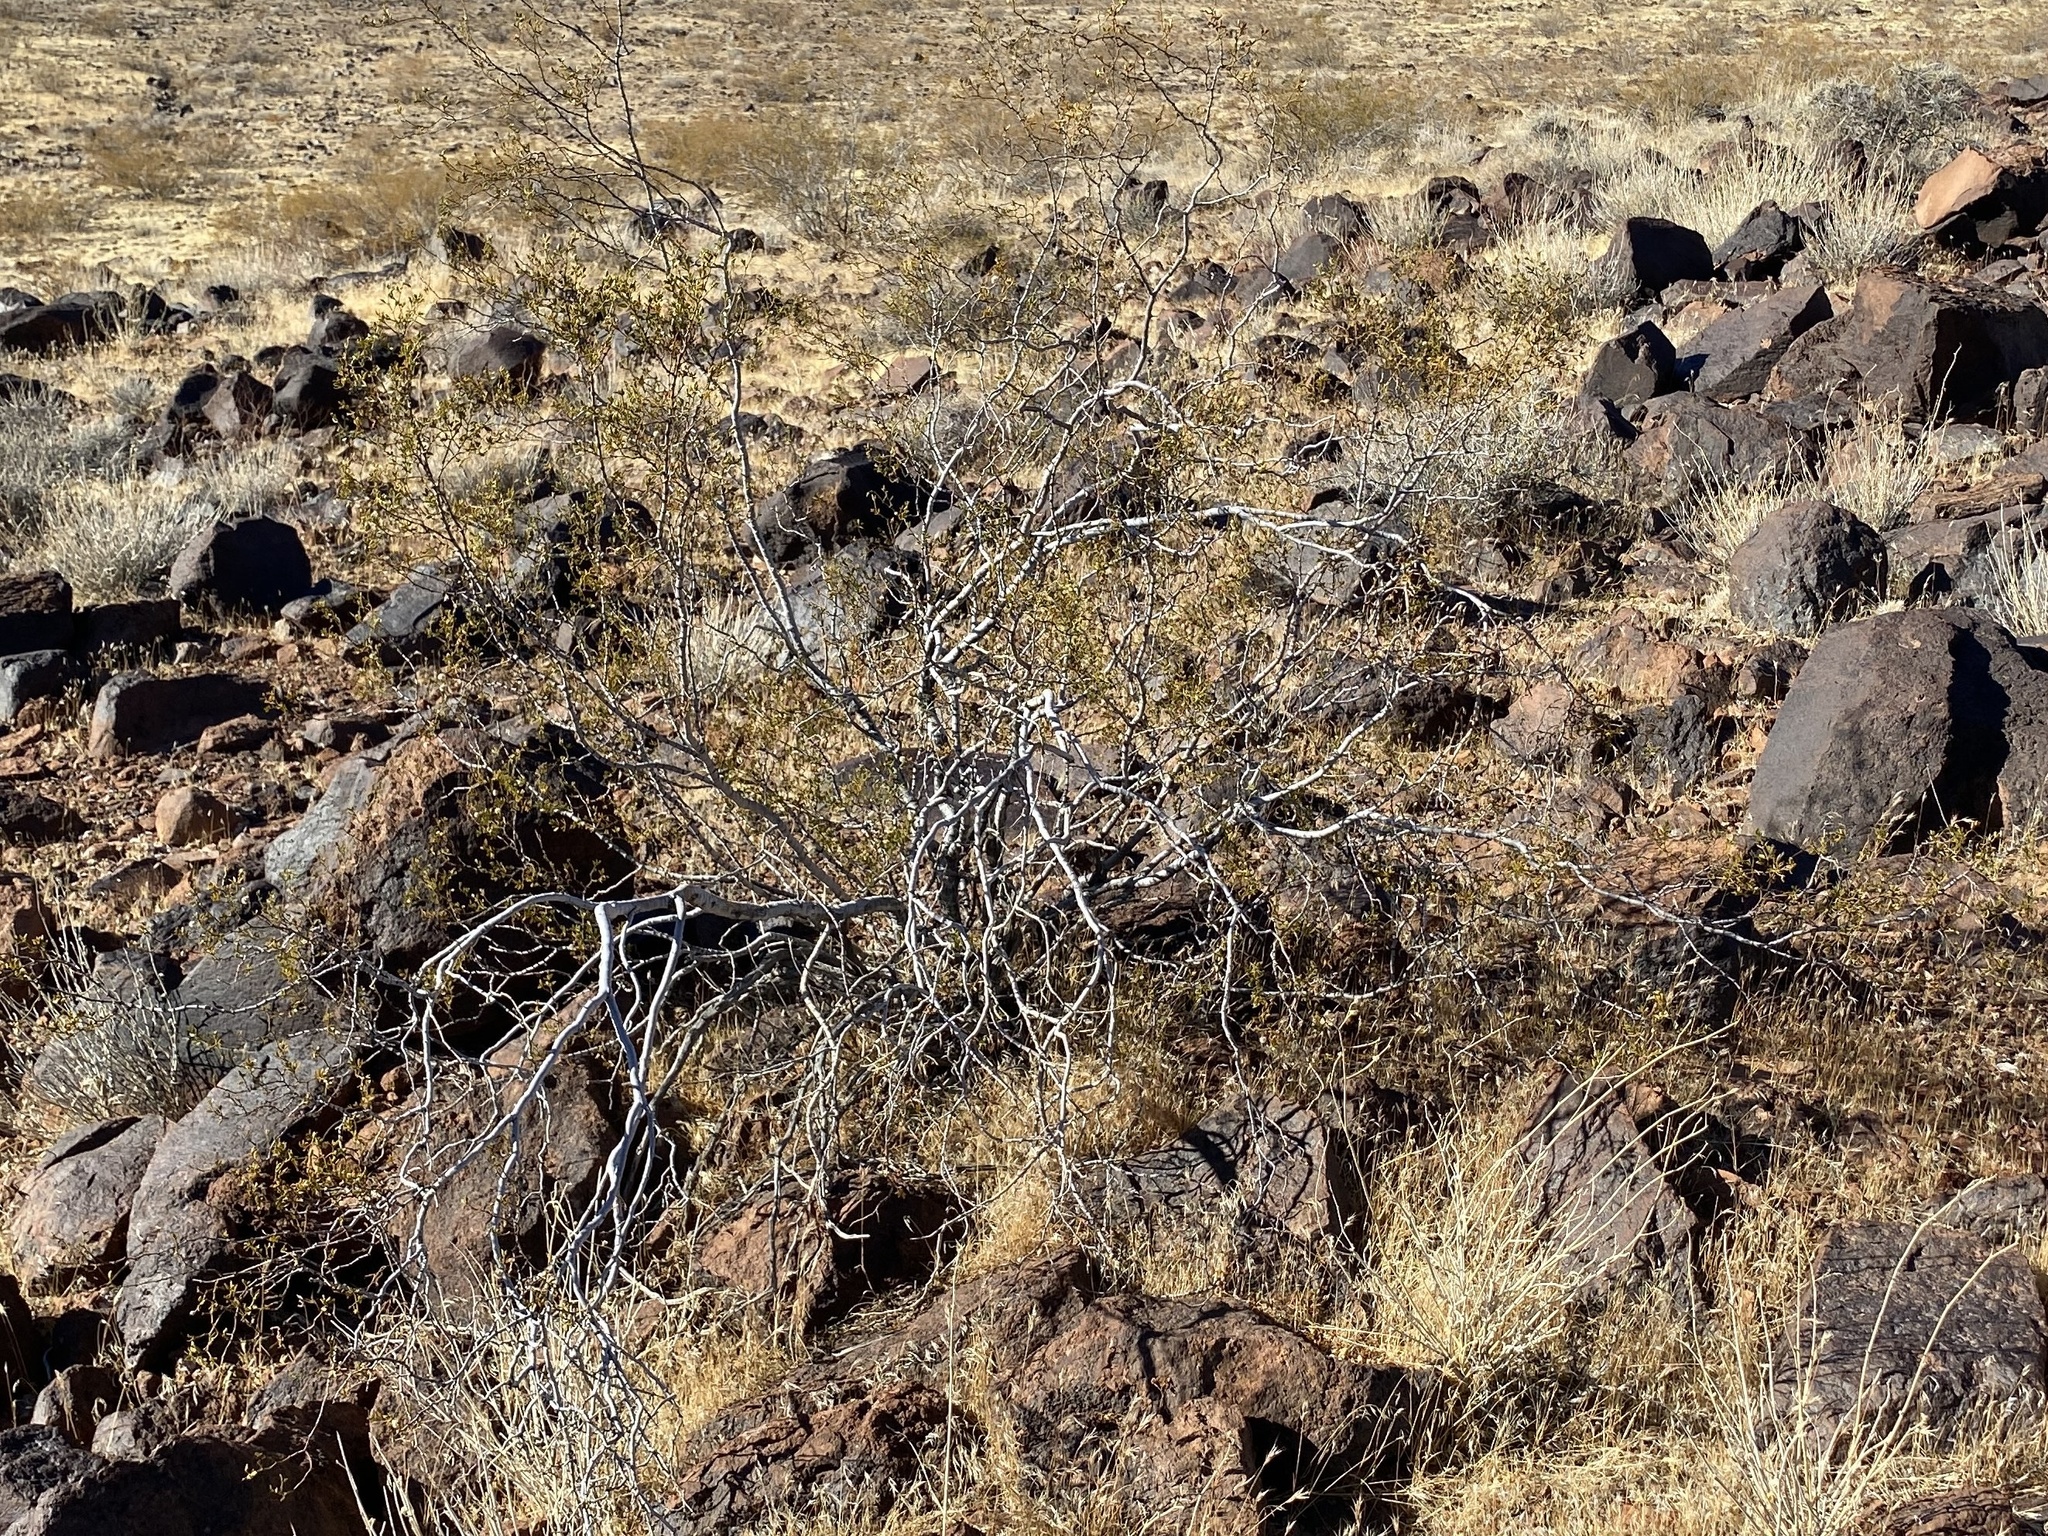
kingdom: Plantae
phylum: Tracheophyta
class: Magnoliopsida
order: Zygophyllales
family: Zygophyllaceae
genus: Larrea
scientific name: Larrea tridentata
